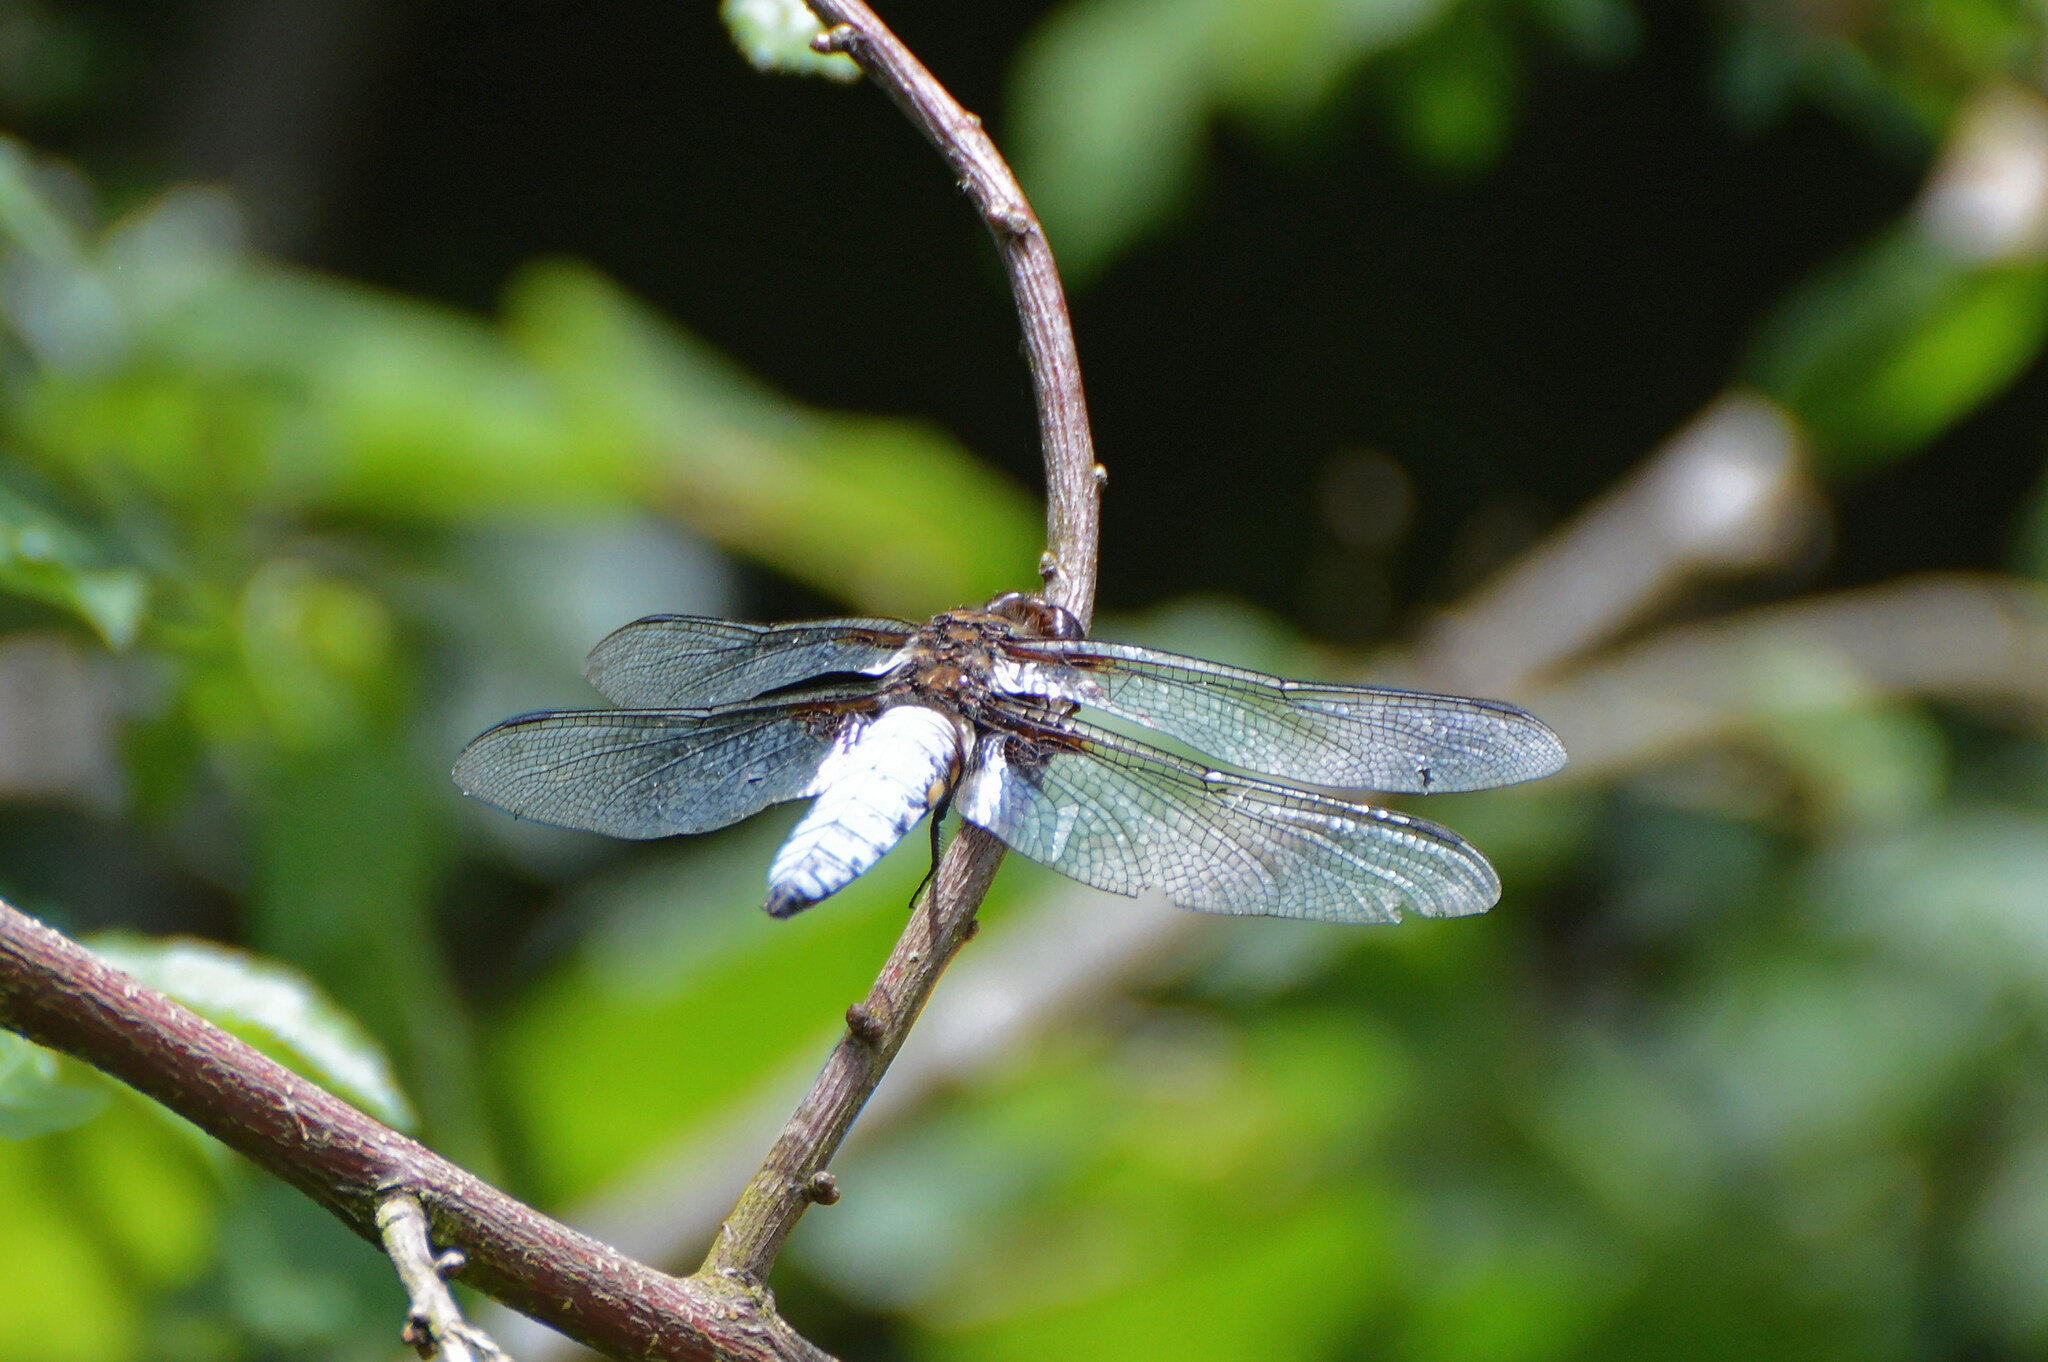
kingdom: Animalia
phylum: Arthropoda
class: Insecta
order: Odonata
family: Libellulidae
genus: Libellula
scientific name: Libellula depressa
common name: Broad-bodied chaser
